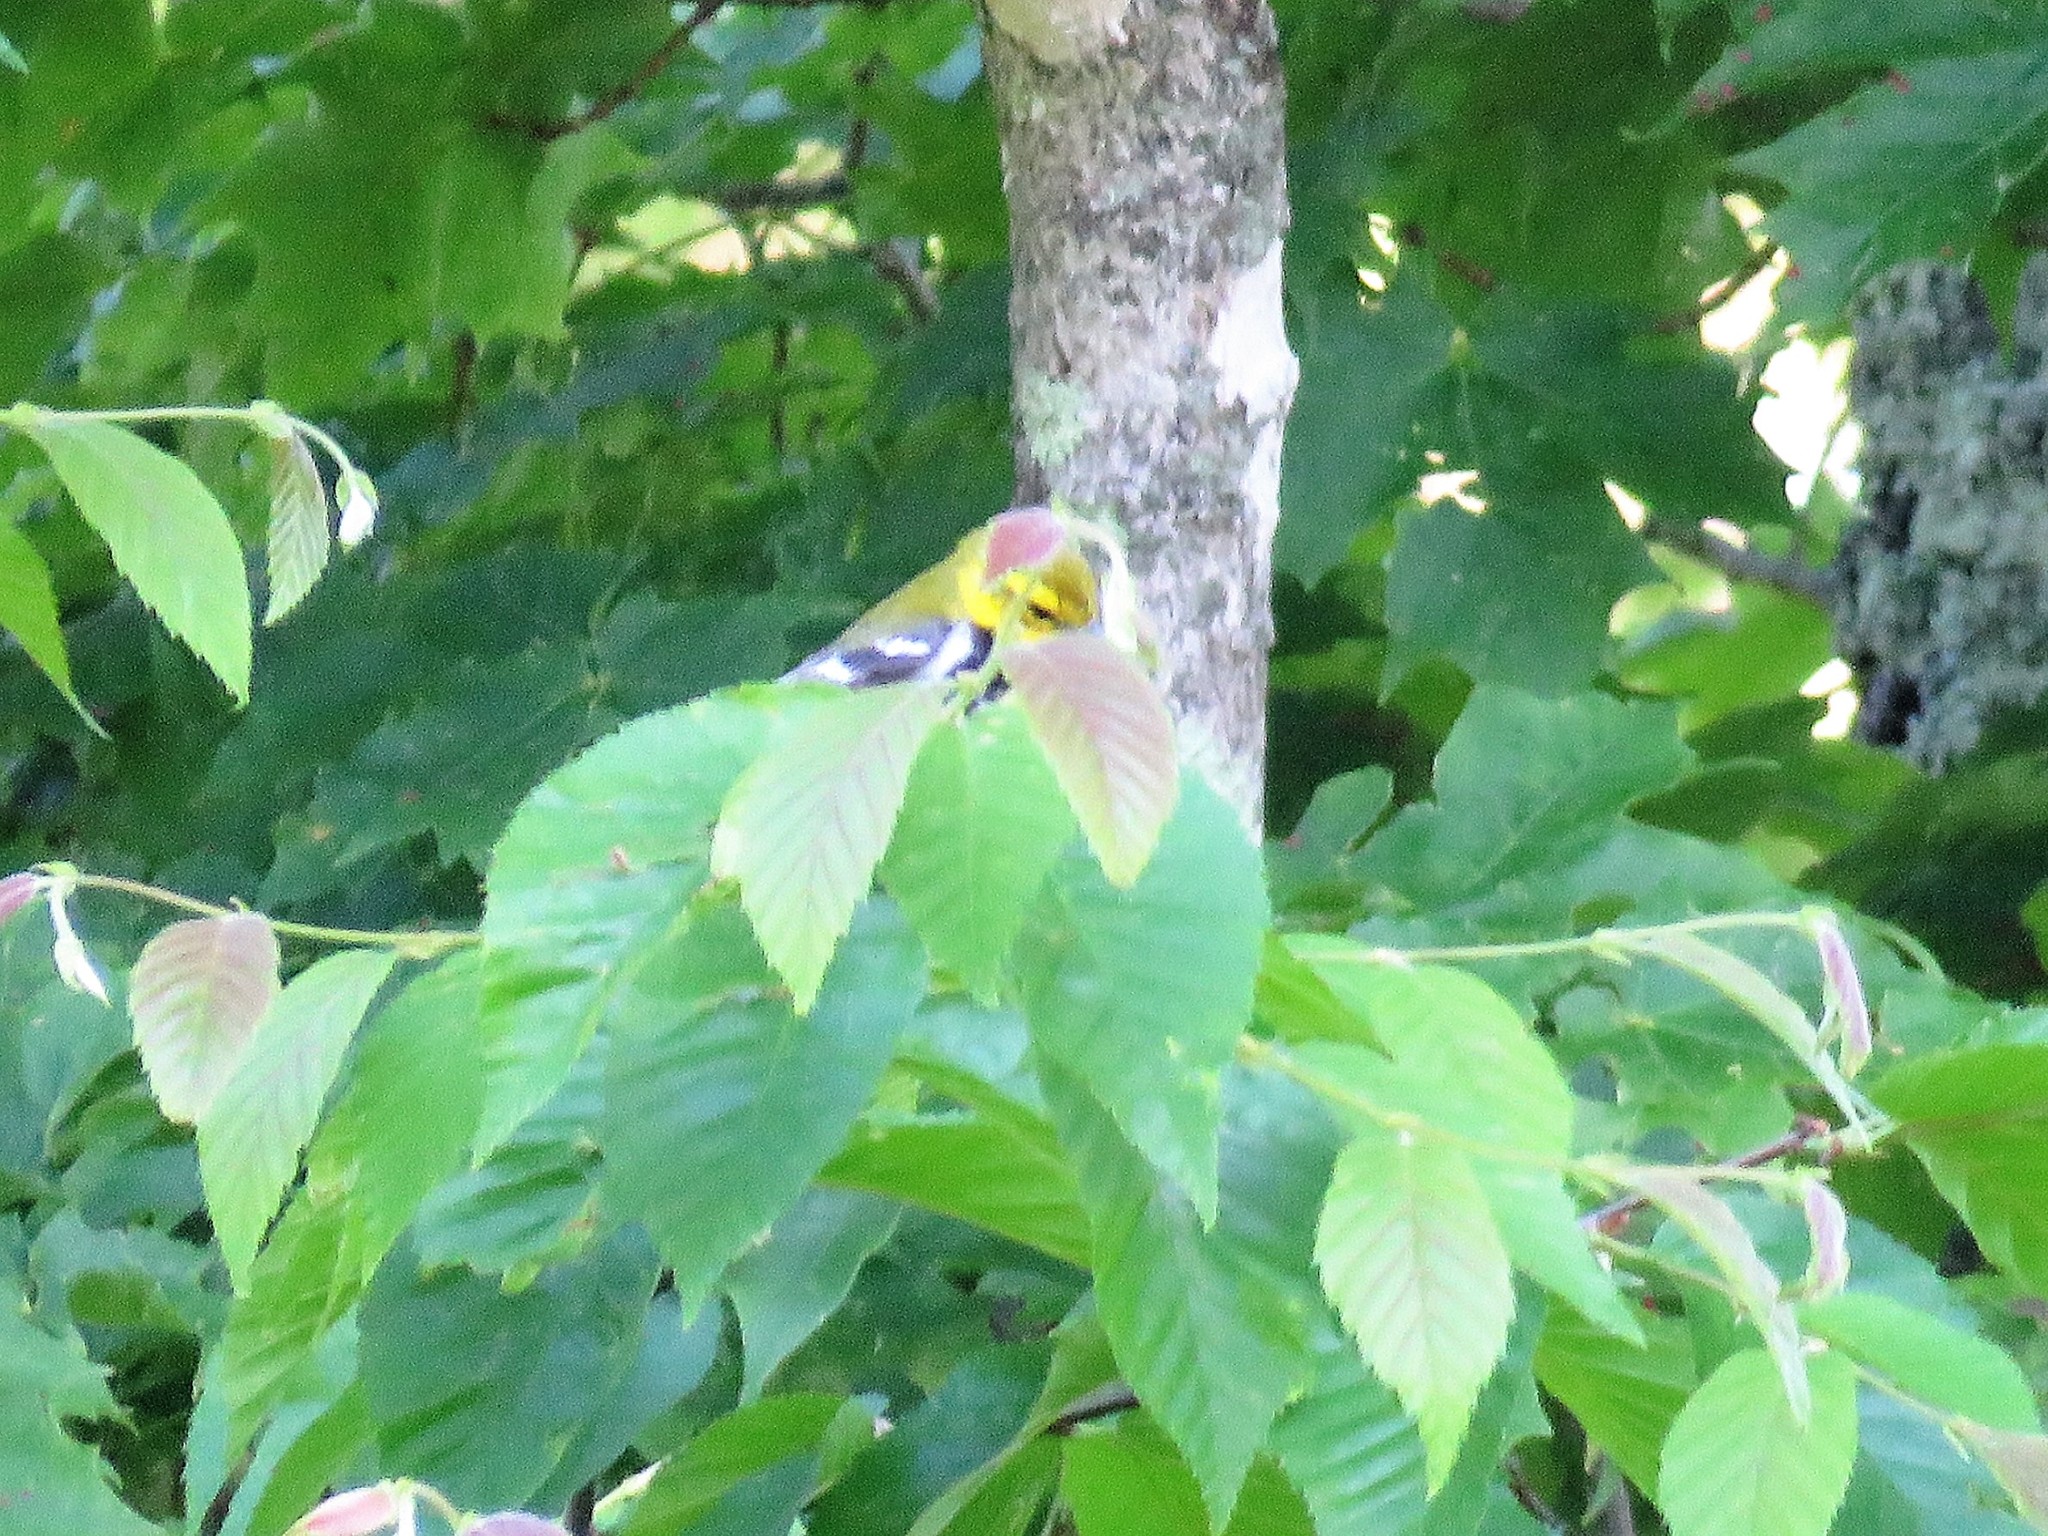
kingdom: Animalia
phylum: Chordata
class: Aves
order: Passeriformes
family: Parulidae
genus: Setophaga
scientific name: Setophaga virens
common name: Black-throated green warbler
